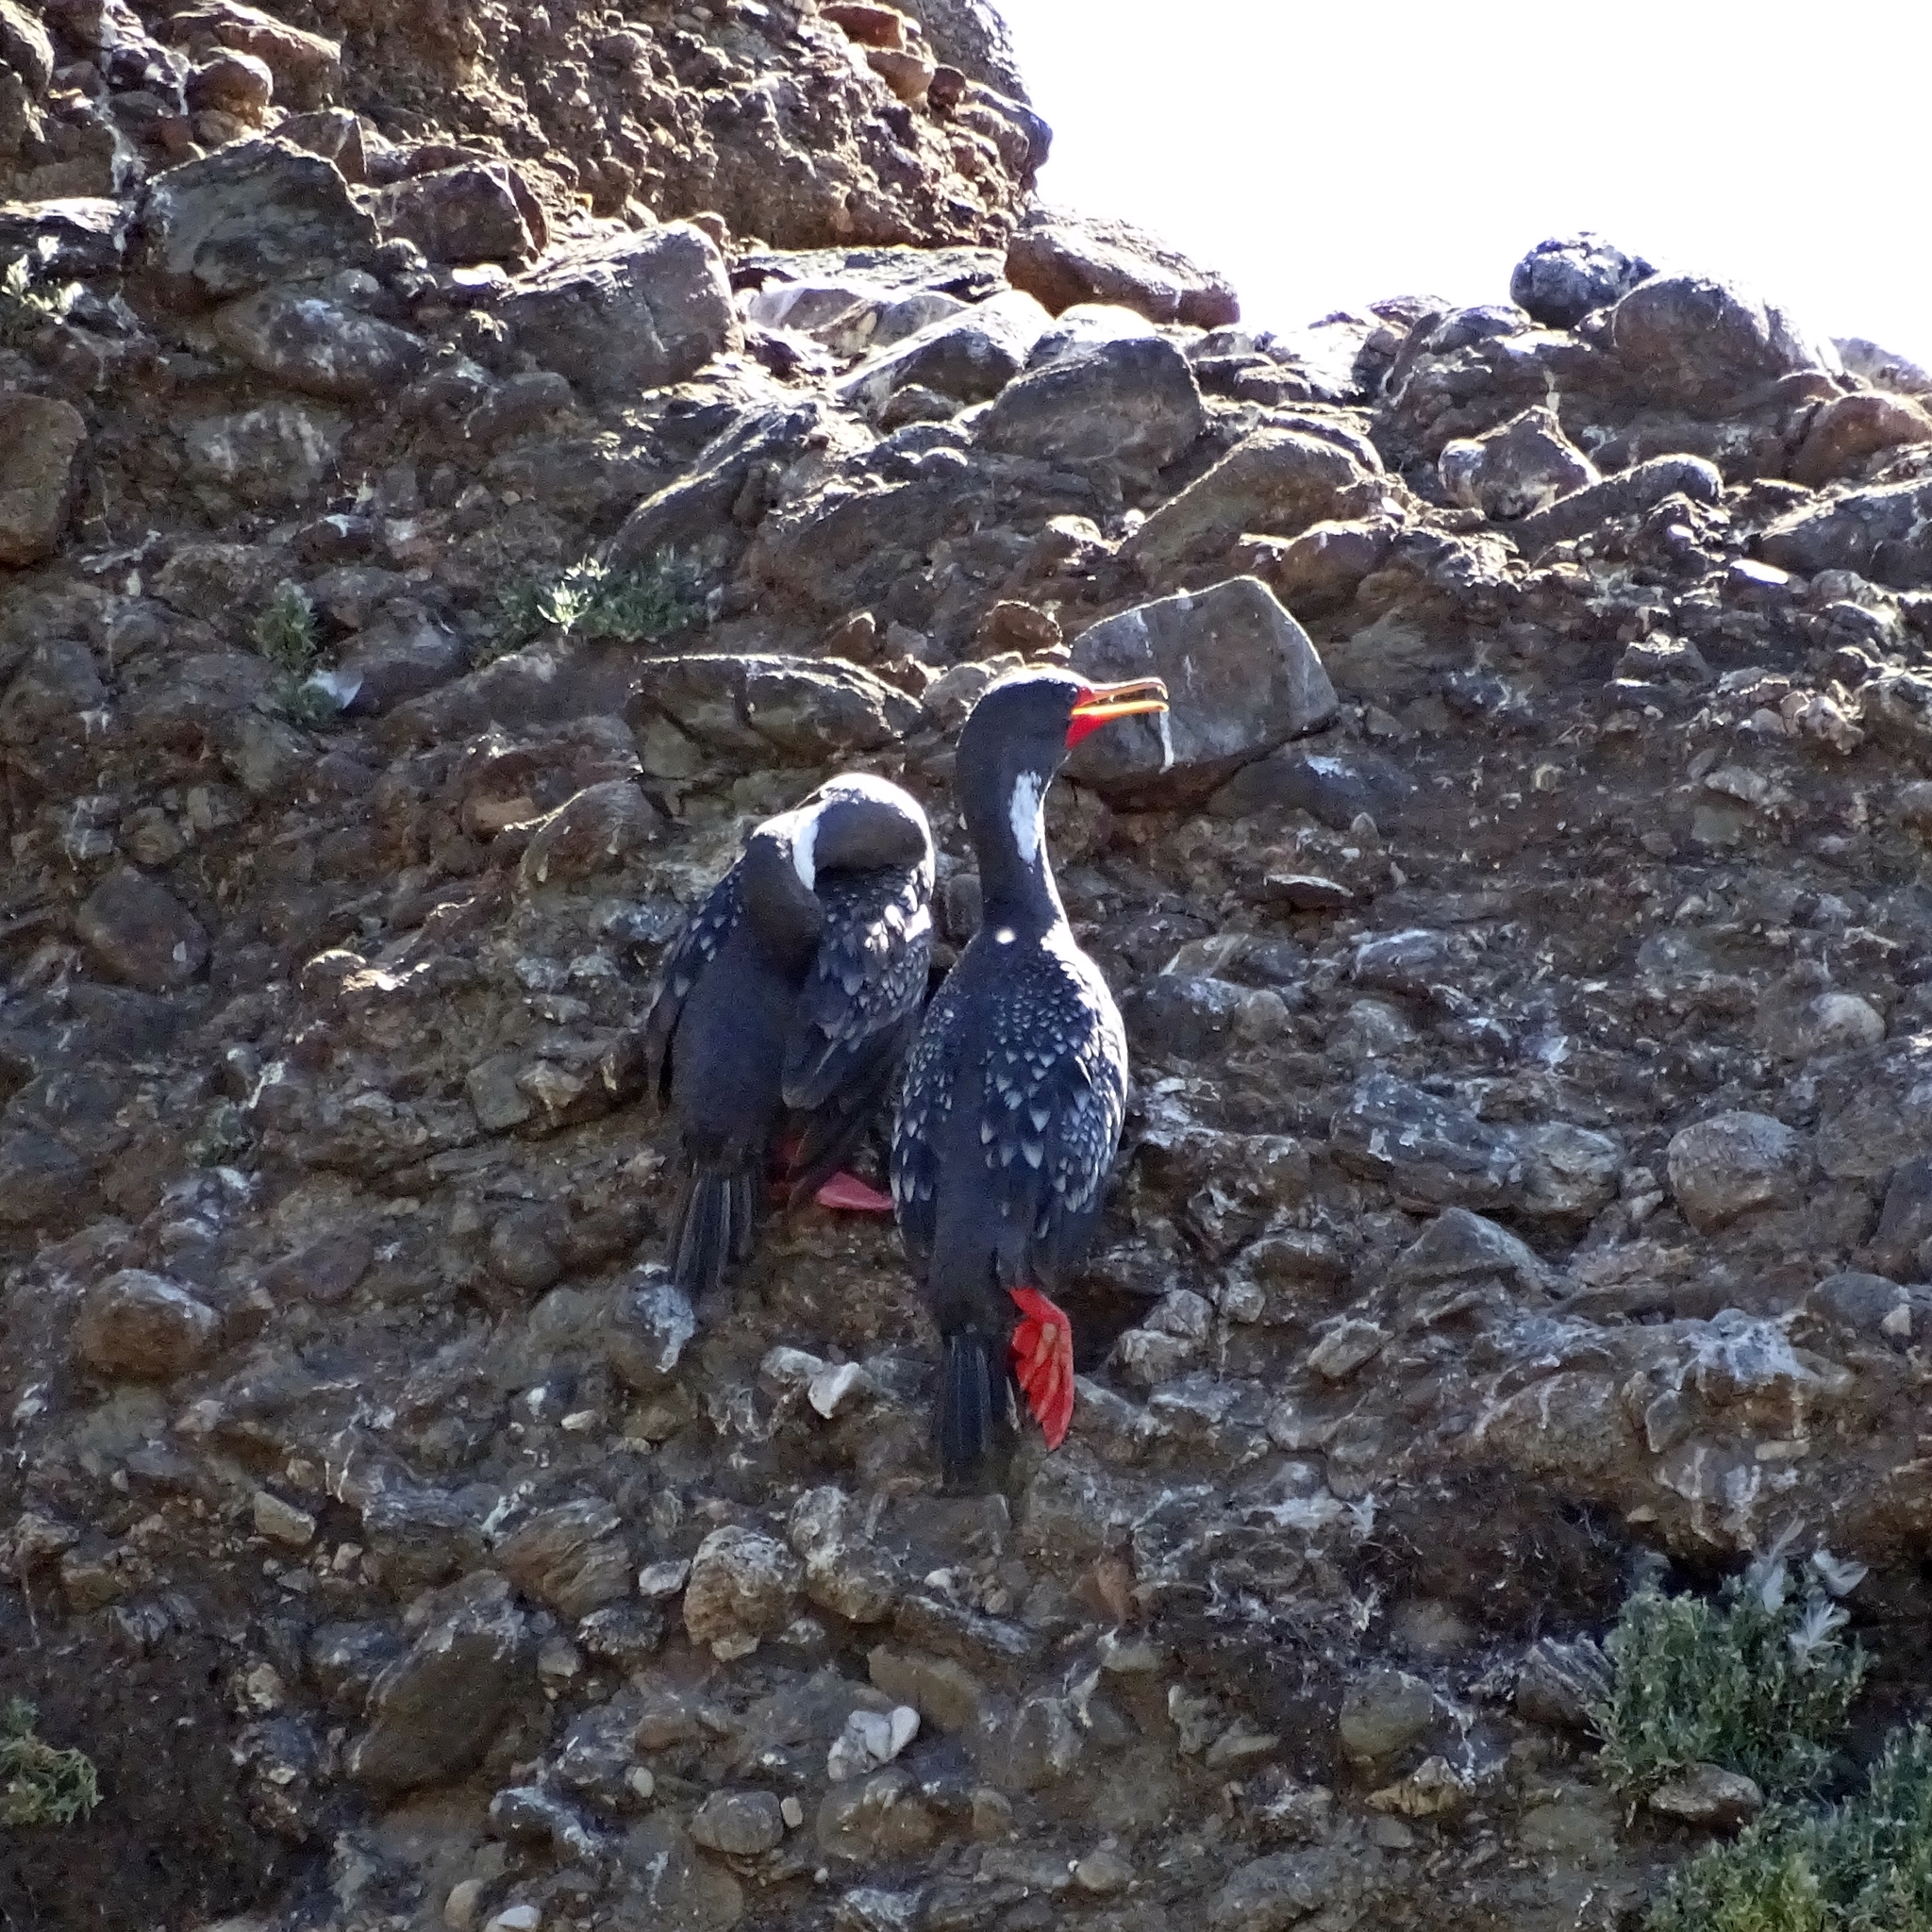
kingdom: Animalia
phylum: Chordata
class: Aves
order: Suliformes
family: Phalacrocoracidae
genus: Phalacrocorax
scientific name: Phalacrocorax gaimardi
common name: Red-legged cormorant
